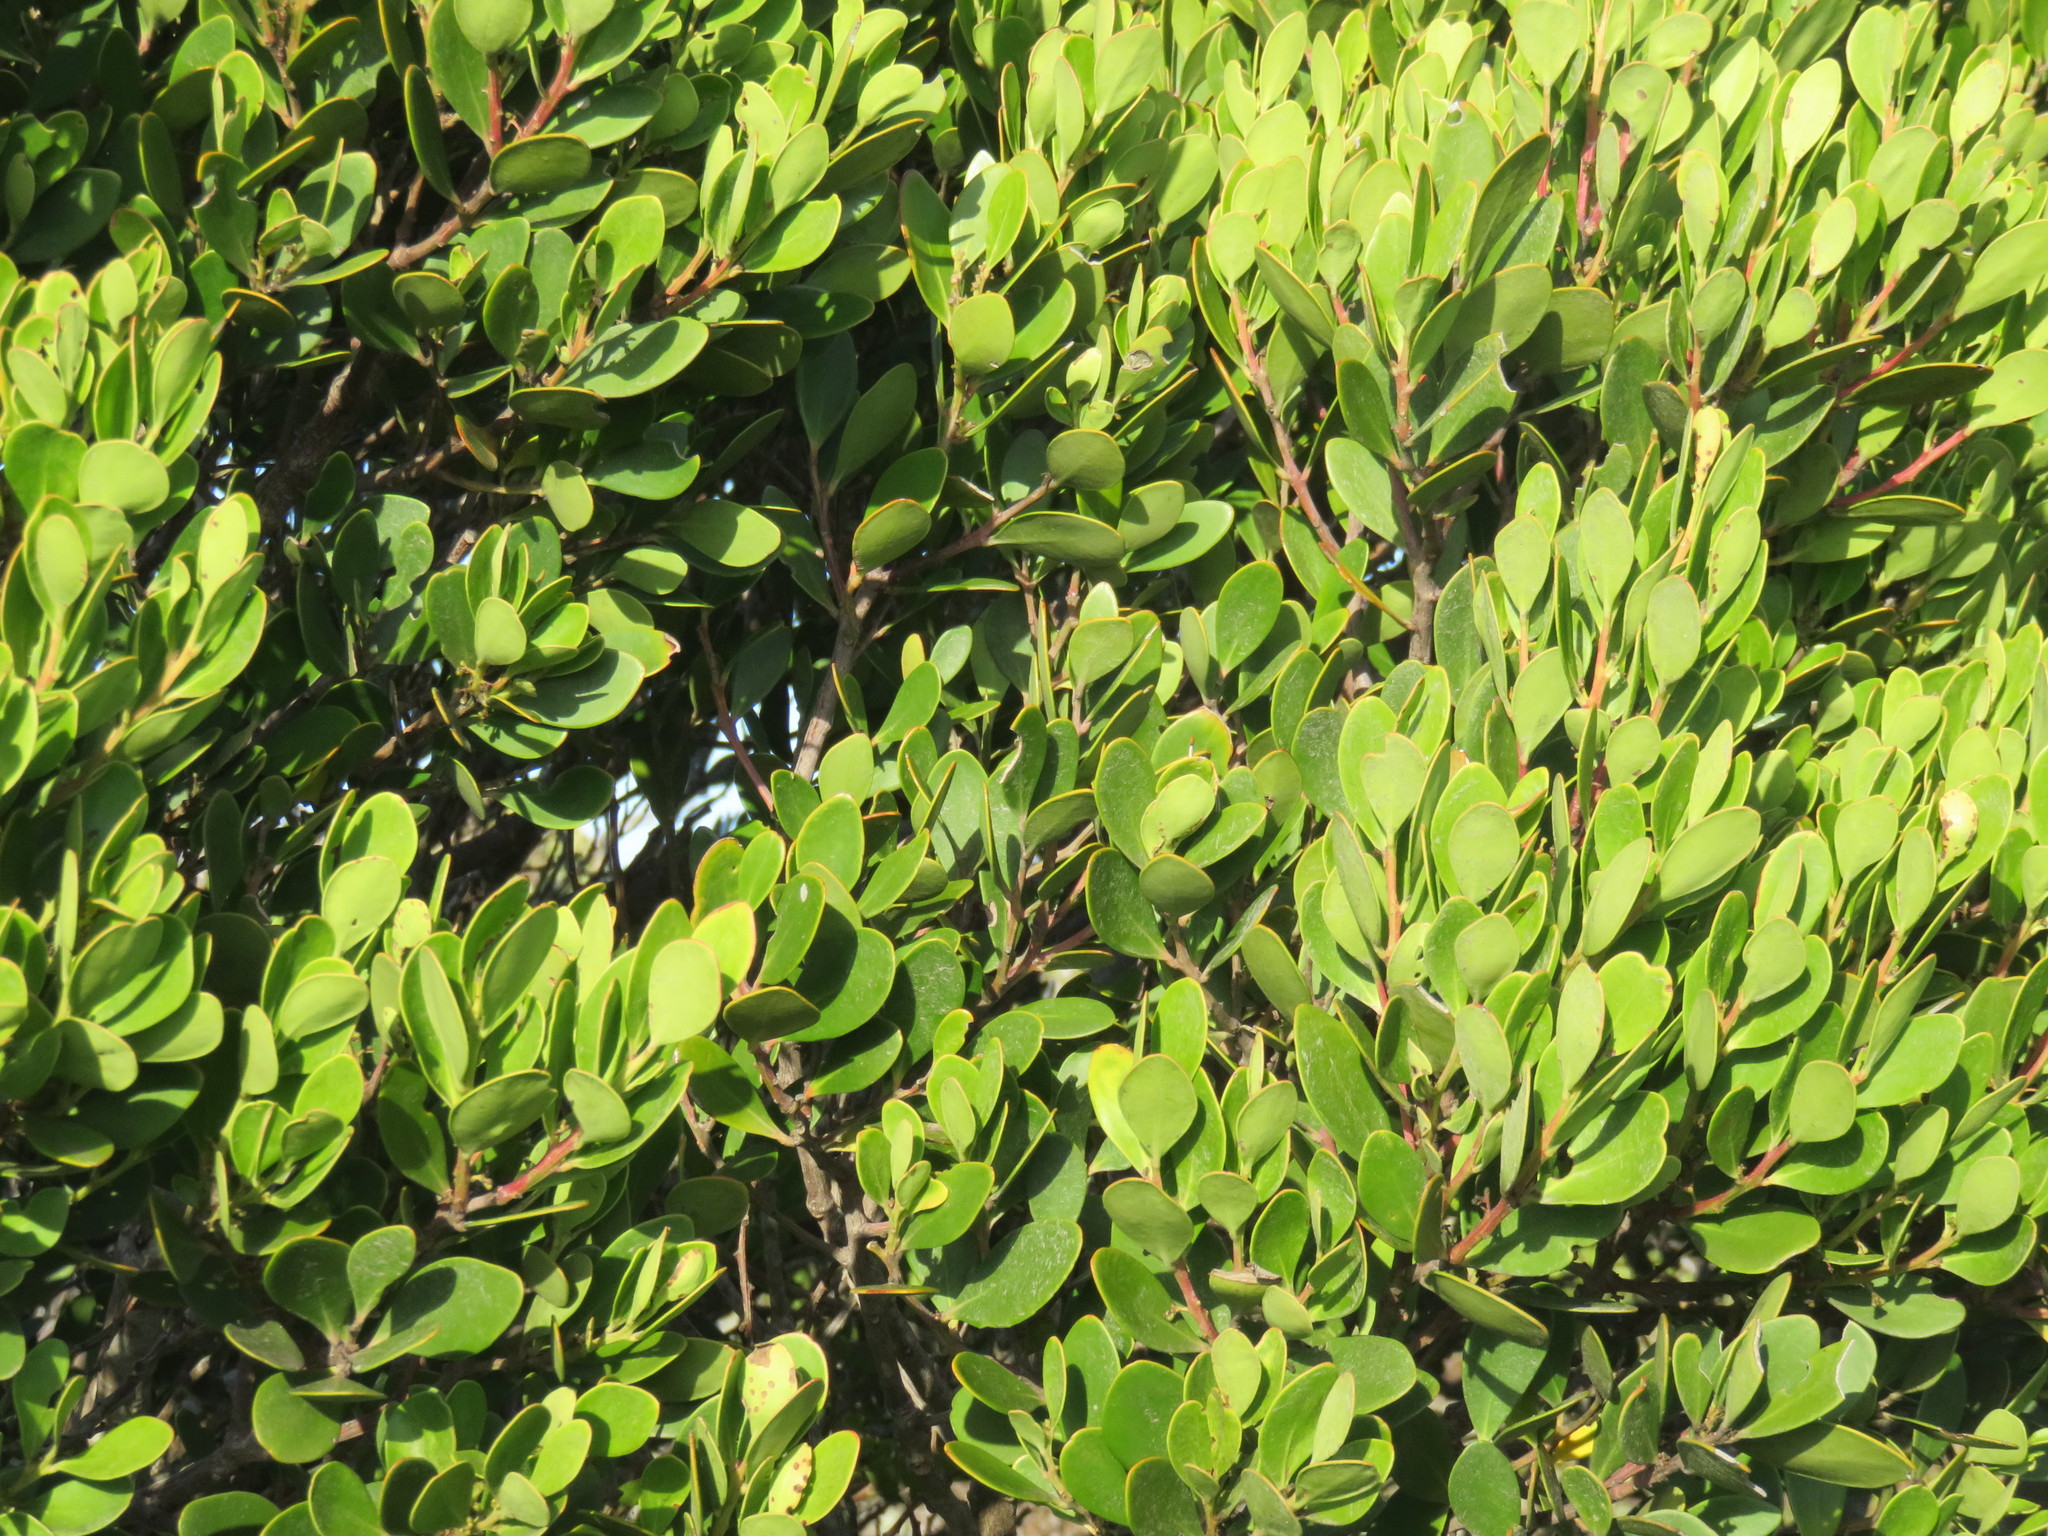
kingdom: Plantae
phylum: Tracheophyta
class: Magnoliopsida
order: Celastrales
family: Celastraceae
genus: Pterocelastrus
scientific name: Pterocelastrus tricuspidatus
